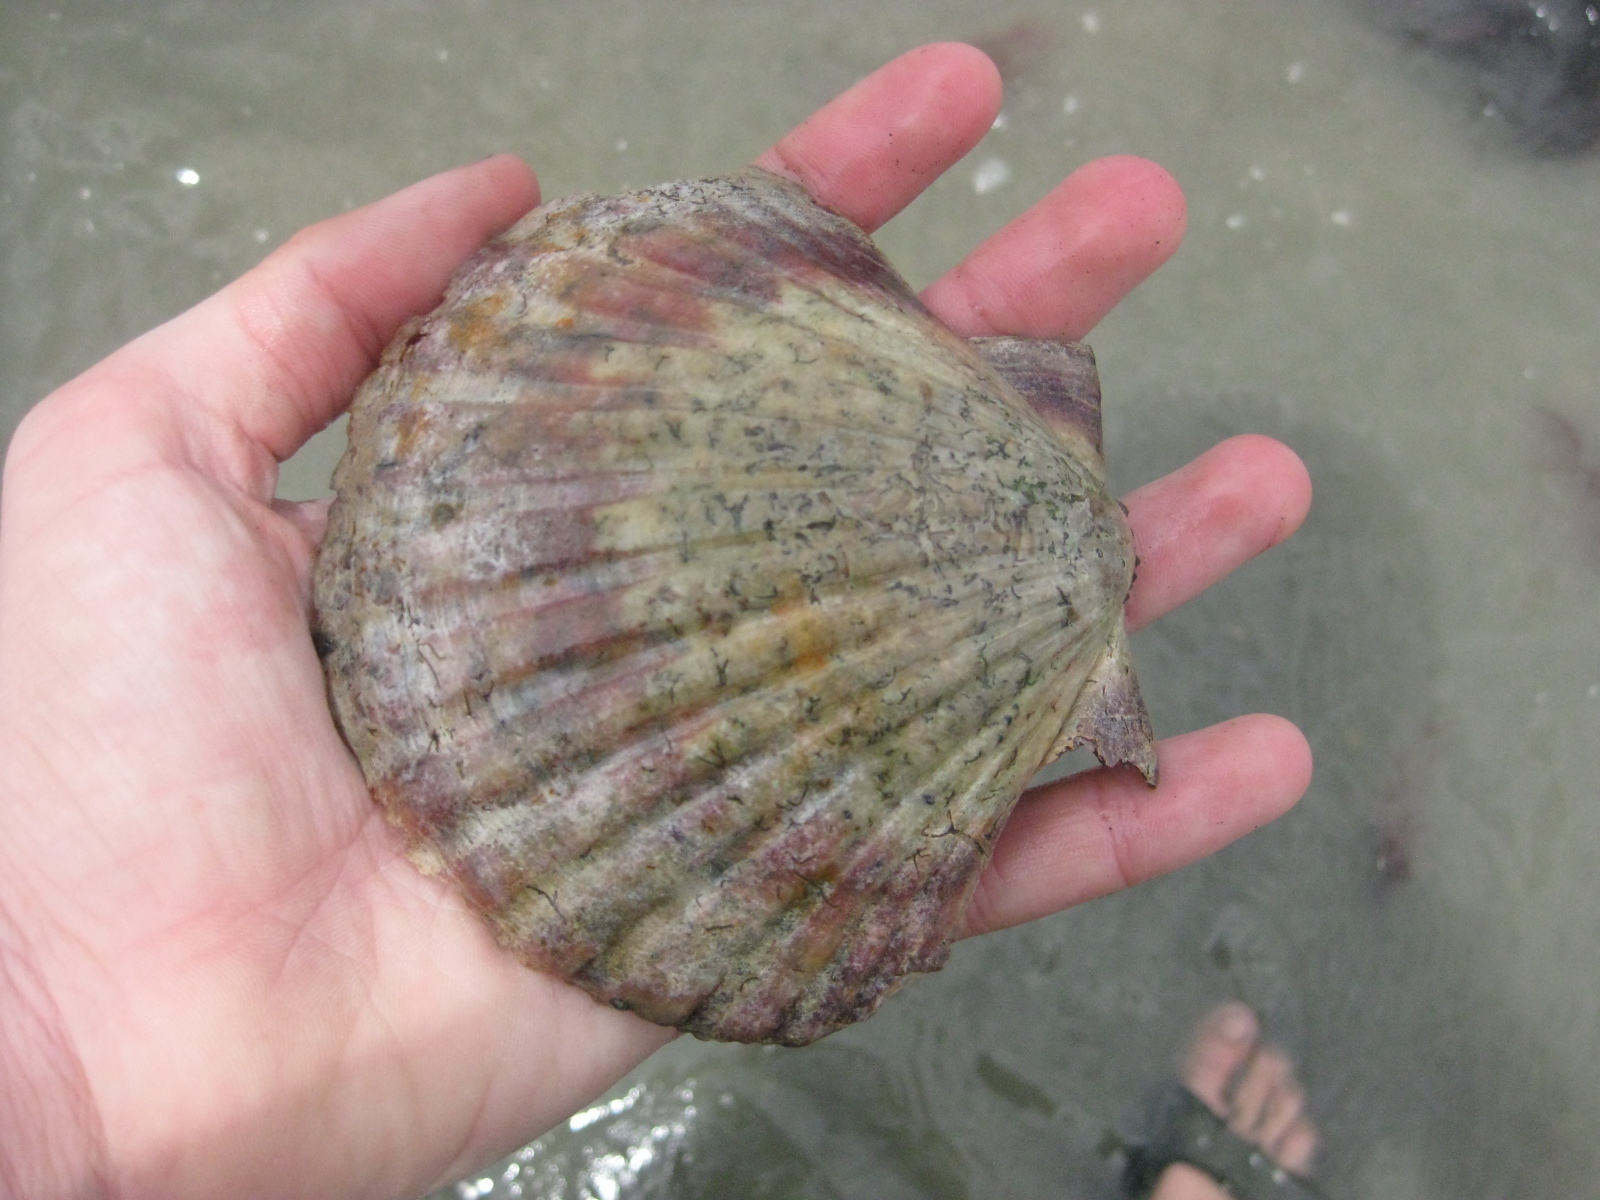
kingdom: Animalia
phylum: Mollusca
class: Bivalvia
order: Pectinida
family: Pectinidae
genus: Pecten
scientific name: Pecten novaezelandiae
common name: New zealand scallop
